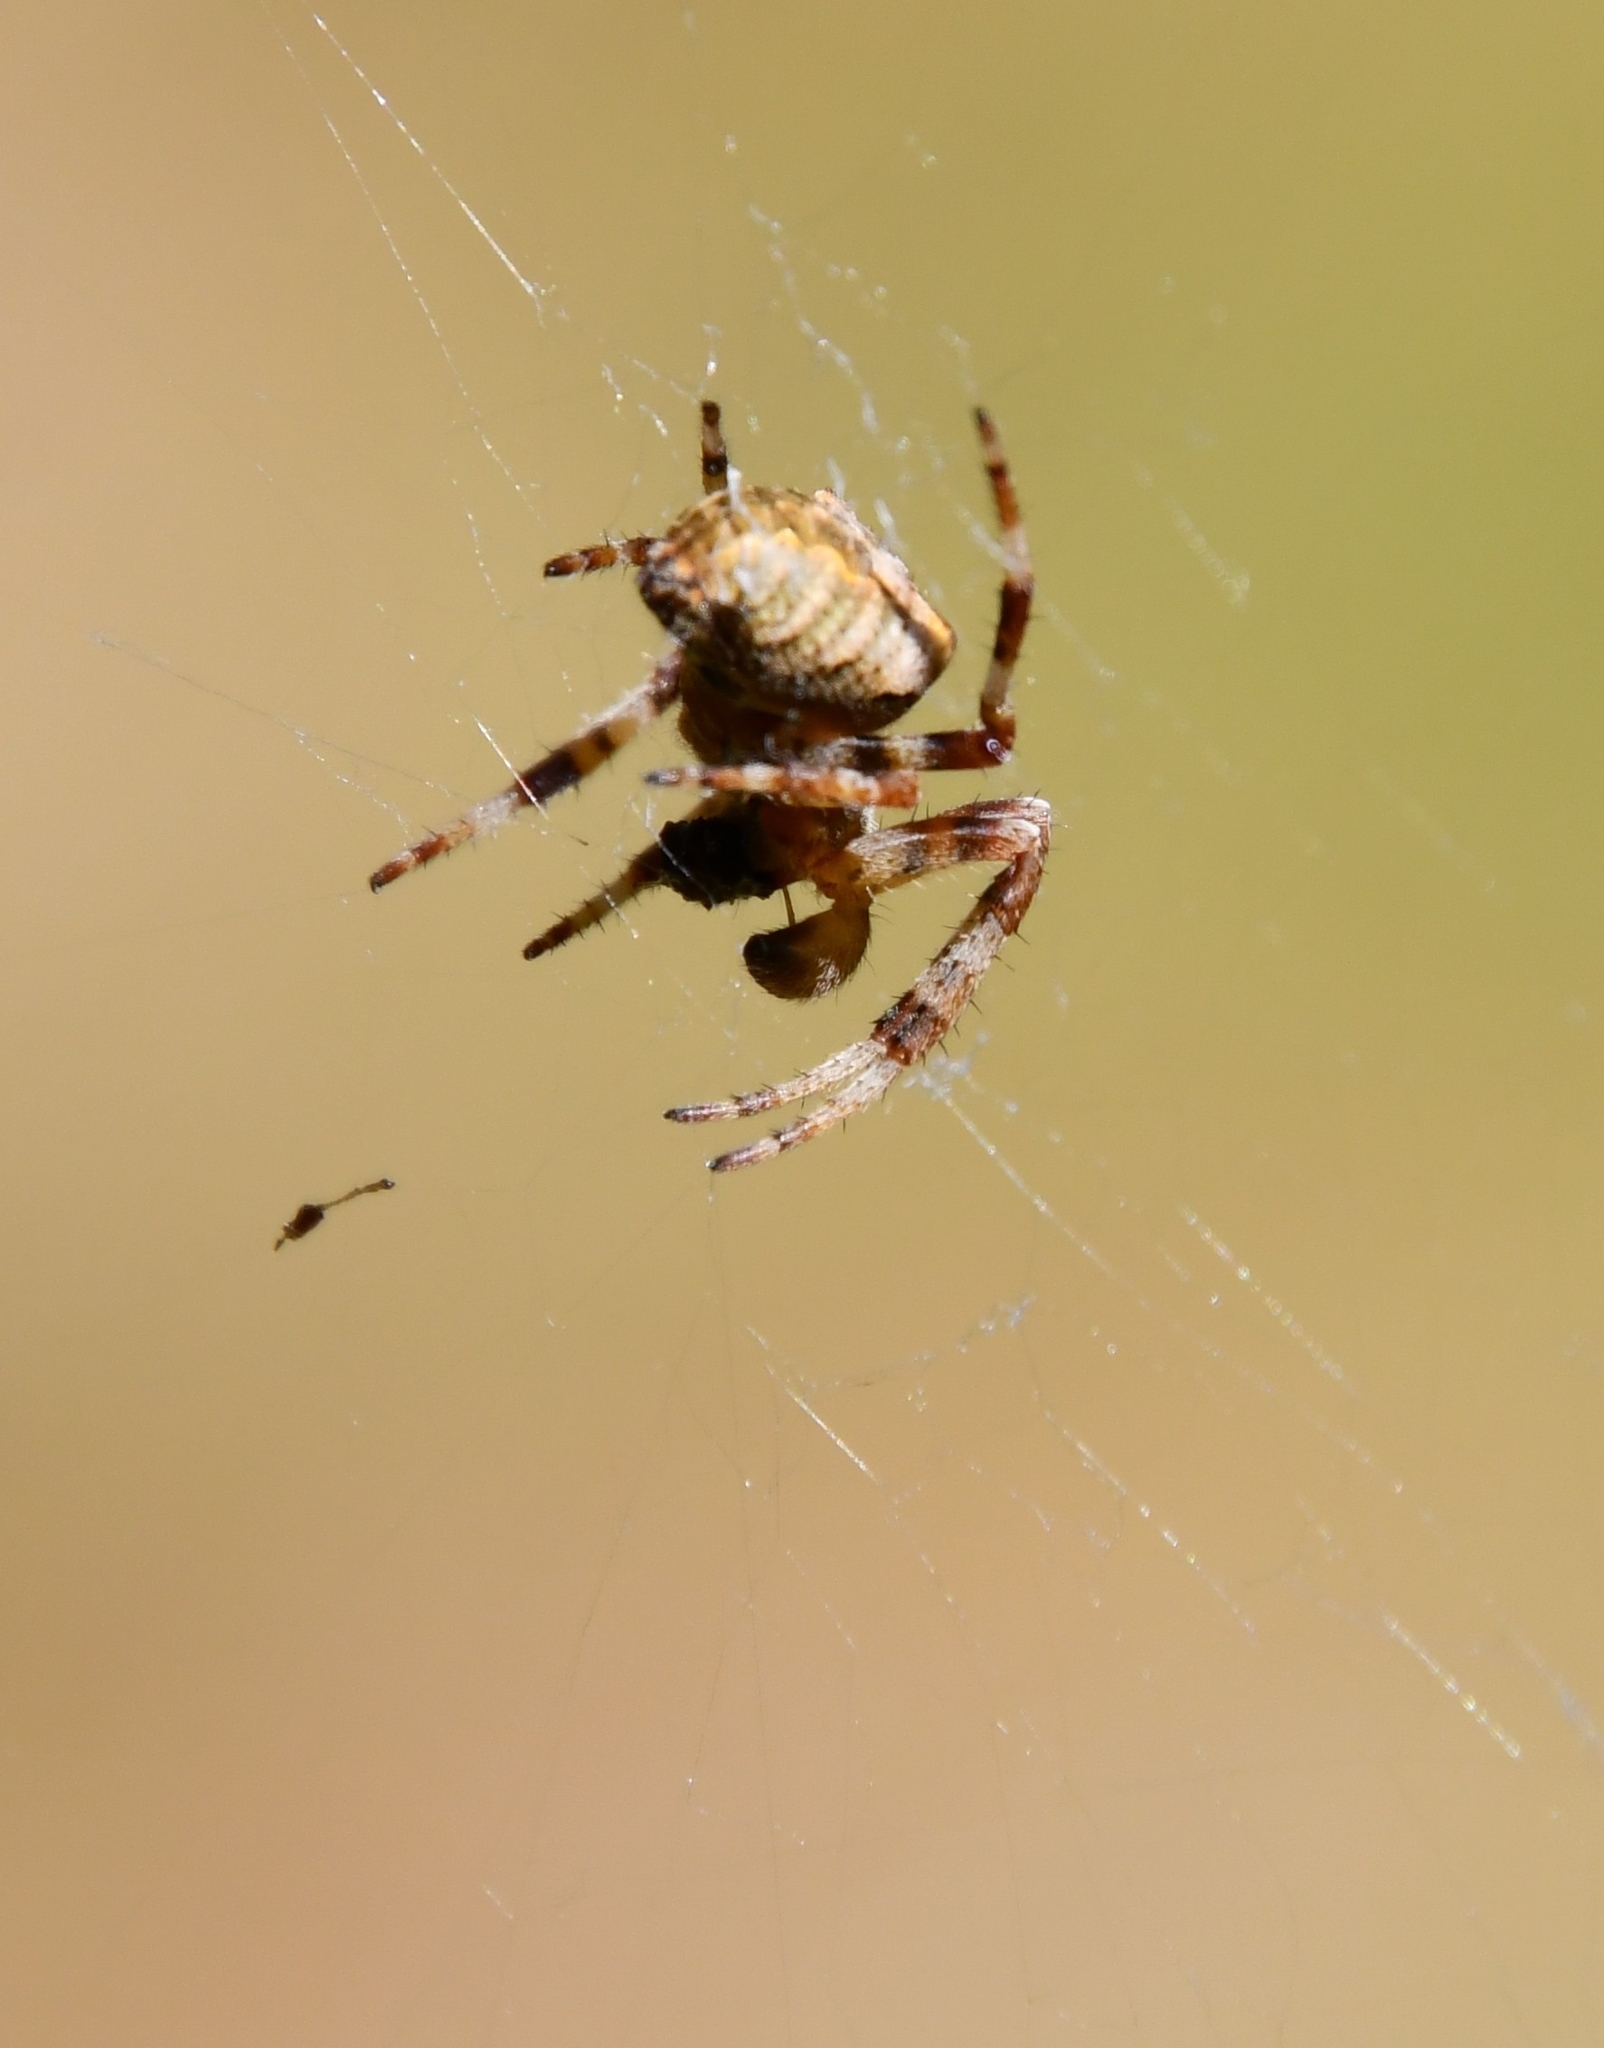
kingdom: Animalia
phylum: Arthropoda
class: Arachnida
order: Araneae
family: Araneidae
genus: Araneus
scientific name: Araneus angulatus
